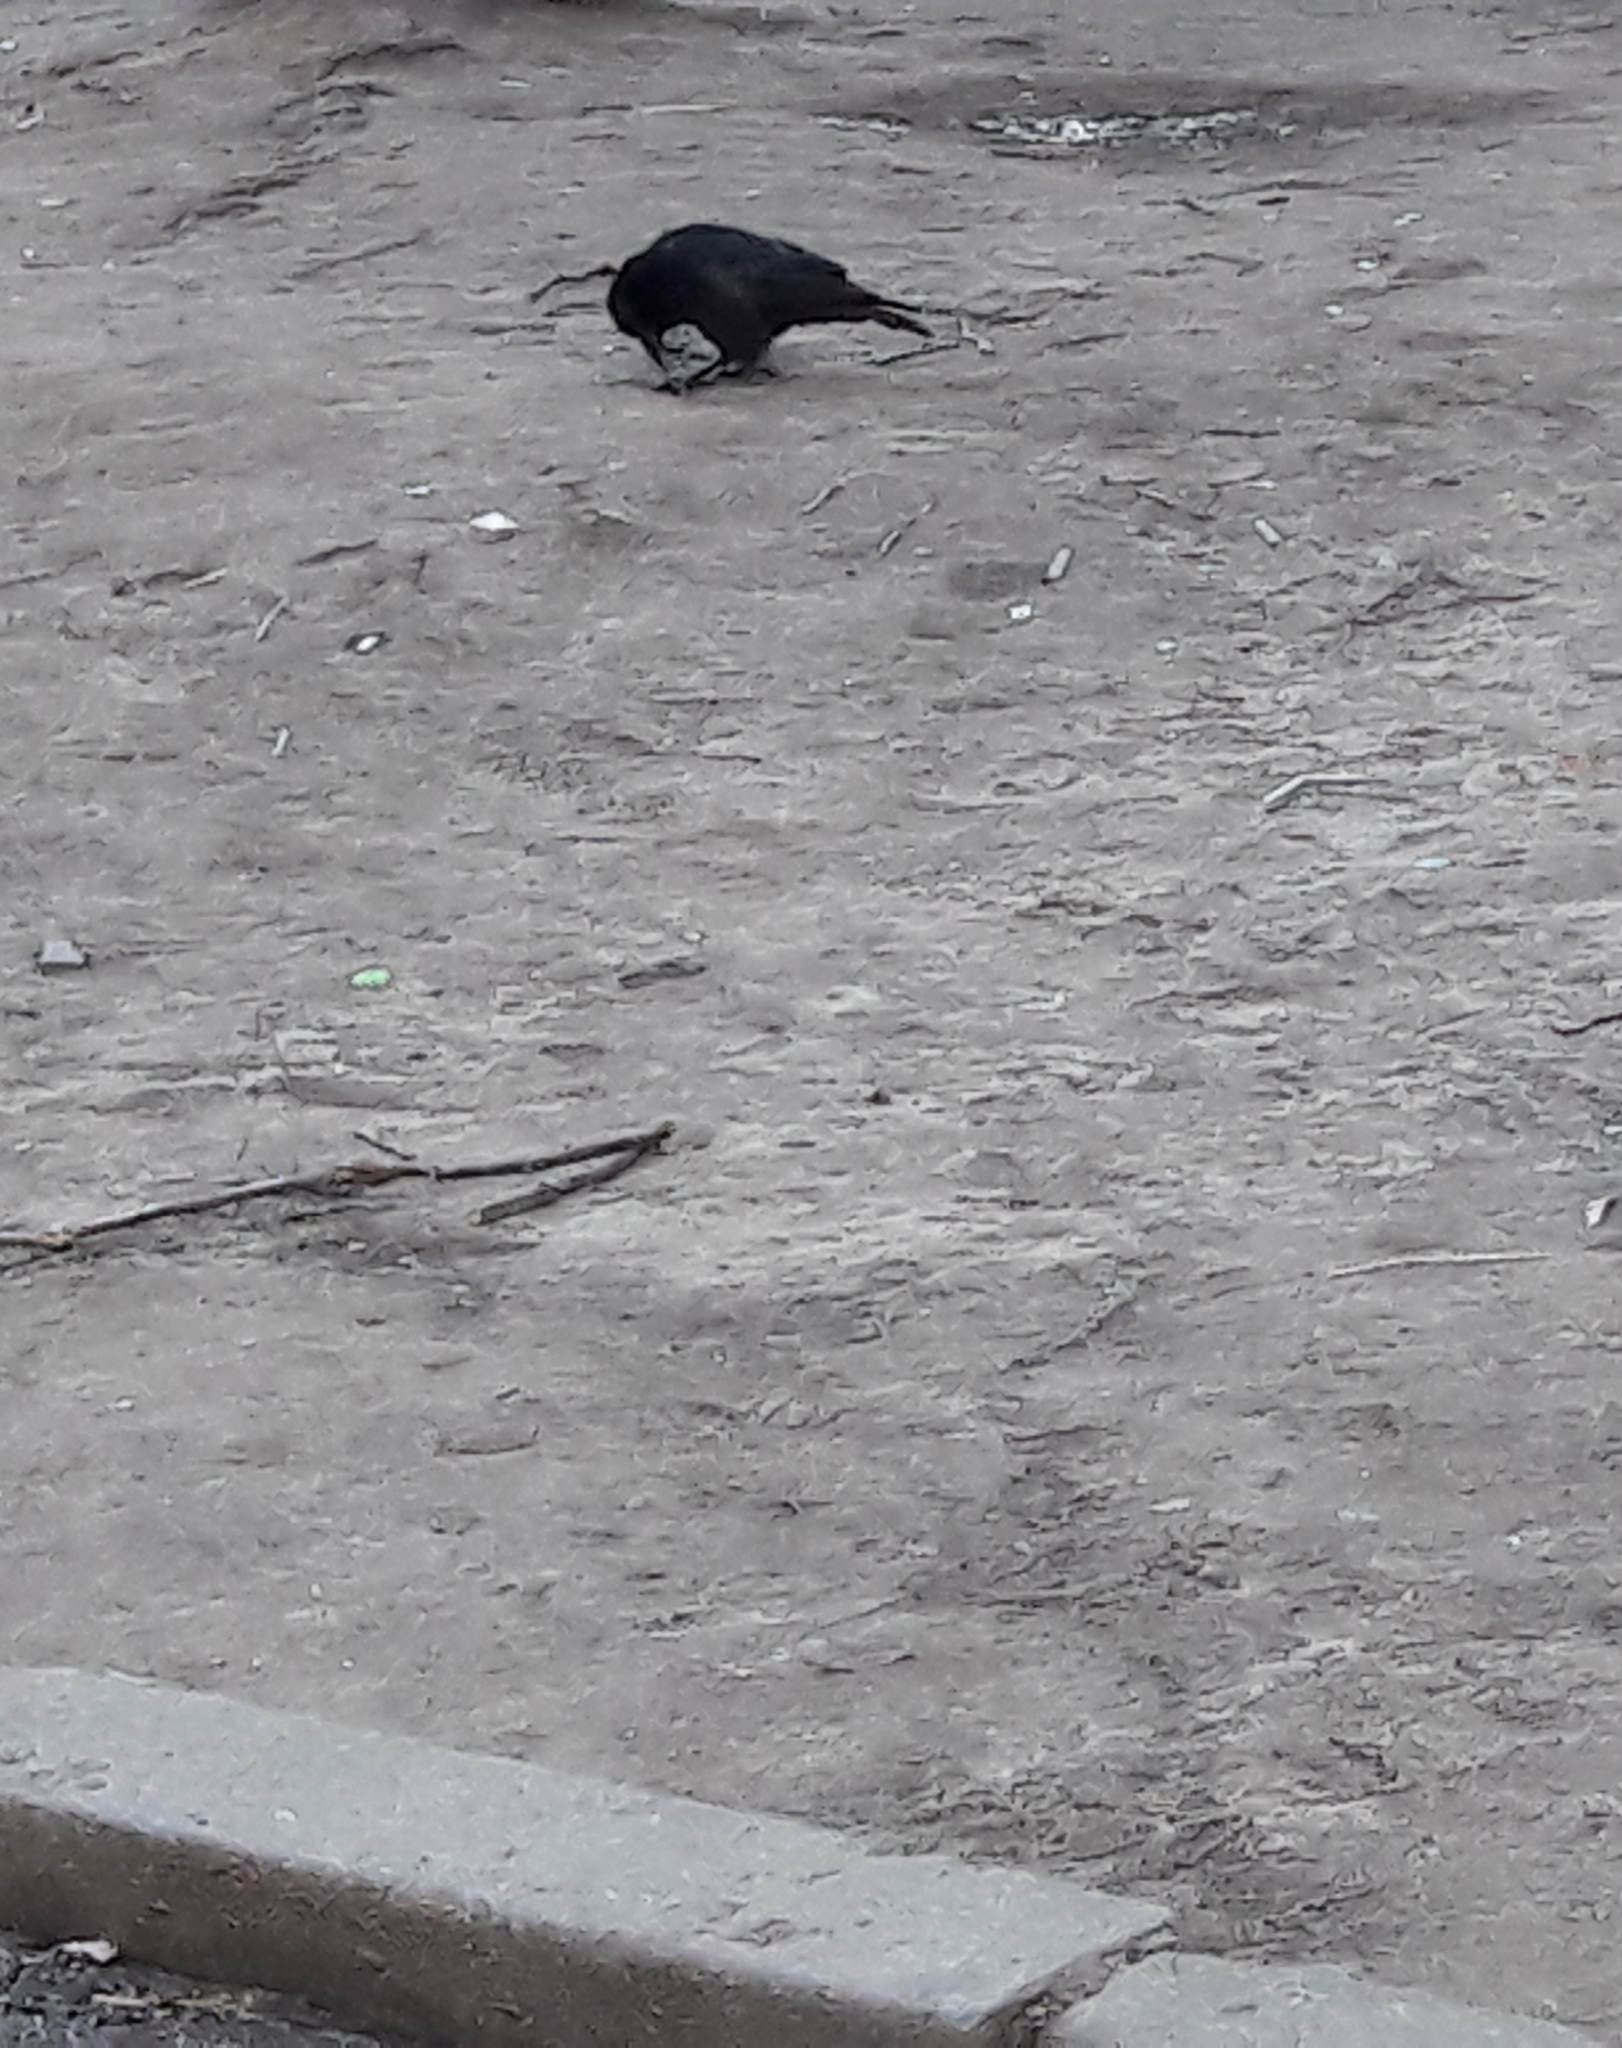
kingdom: Animalia
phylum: Chordata
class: Aves
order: Passeriformes
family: Corvidae
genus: Corvus
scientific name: Corvus corone
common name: Carrion crow
